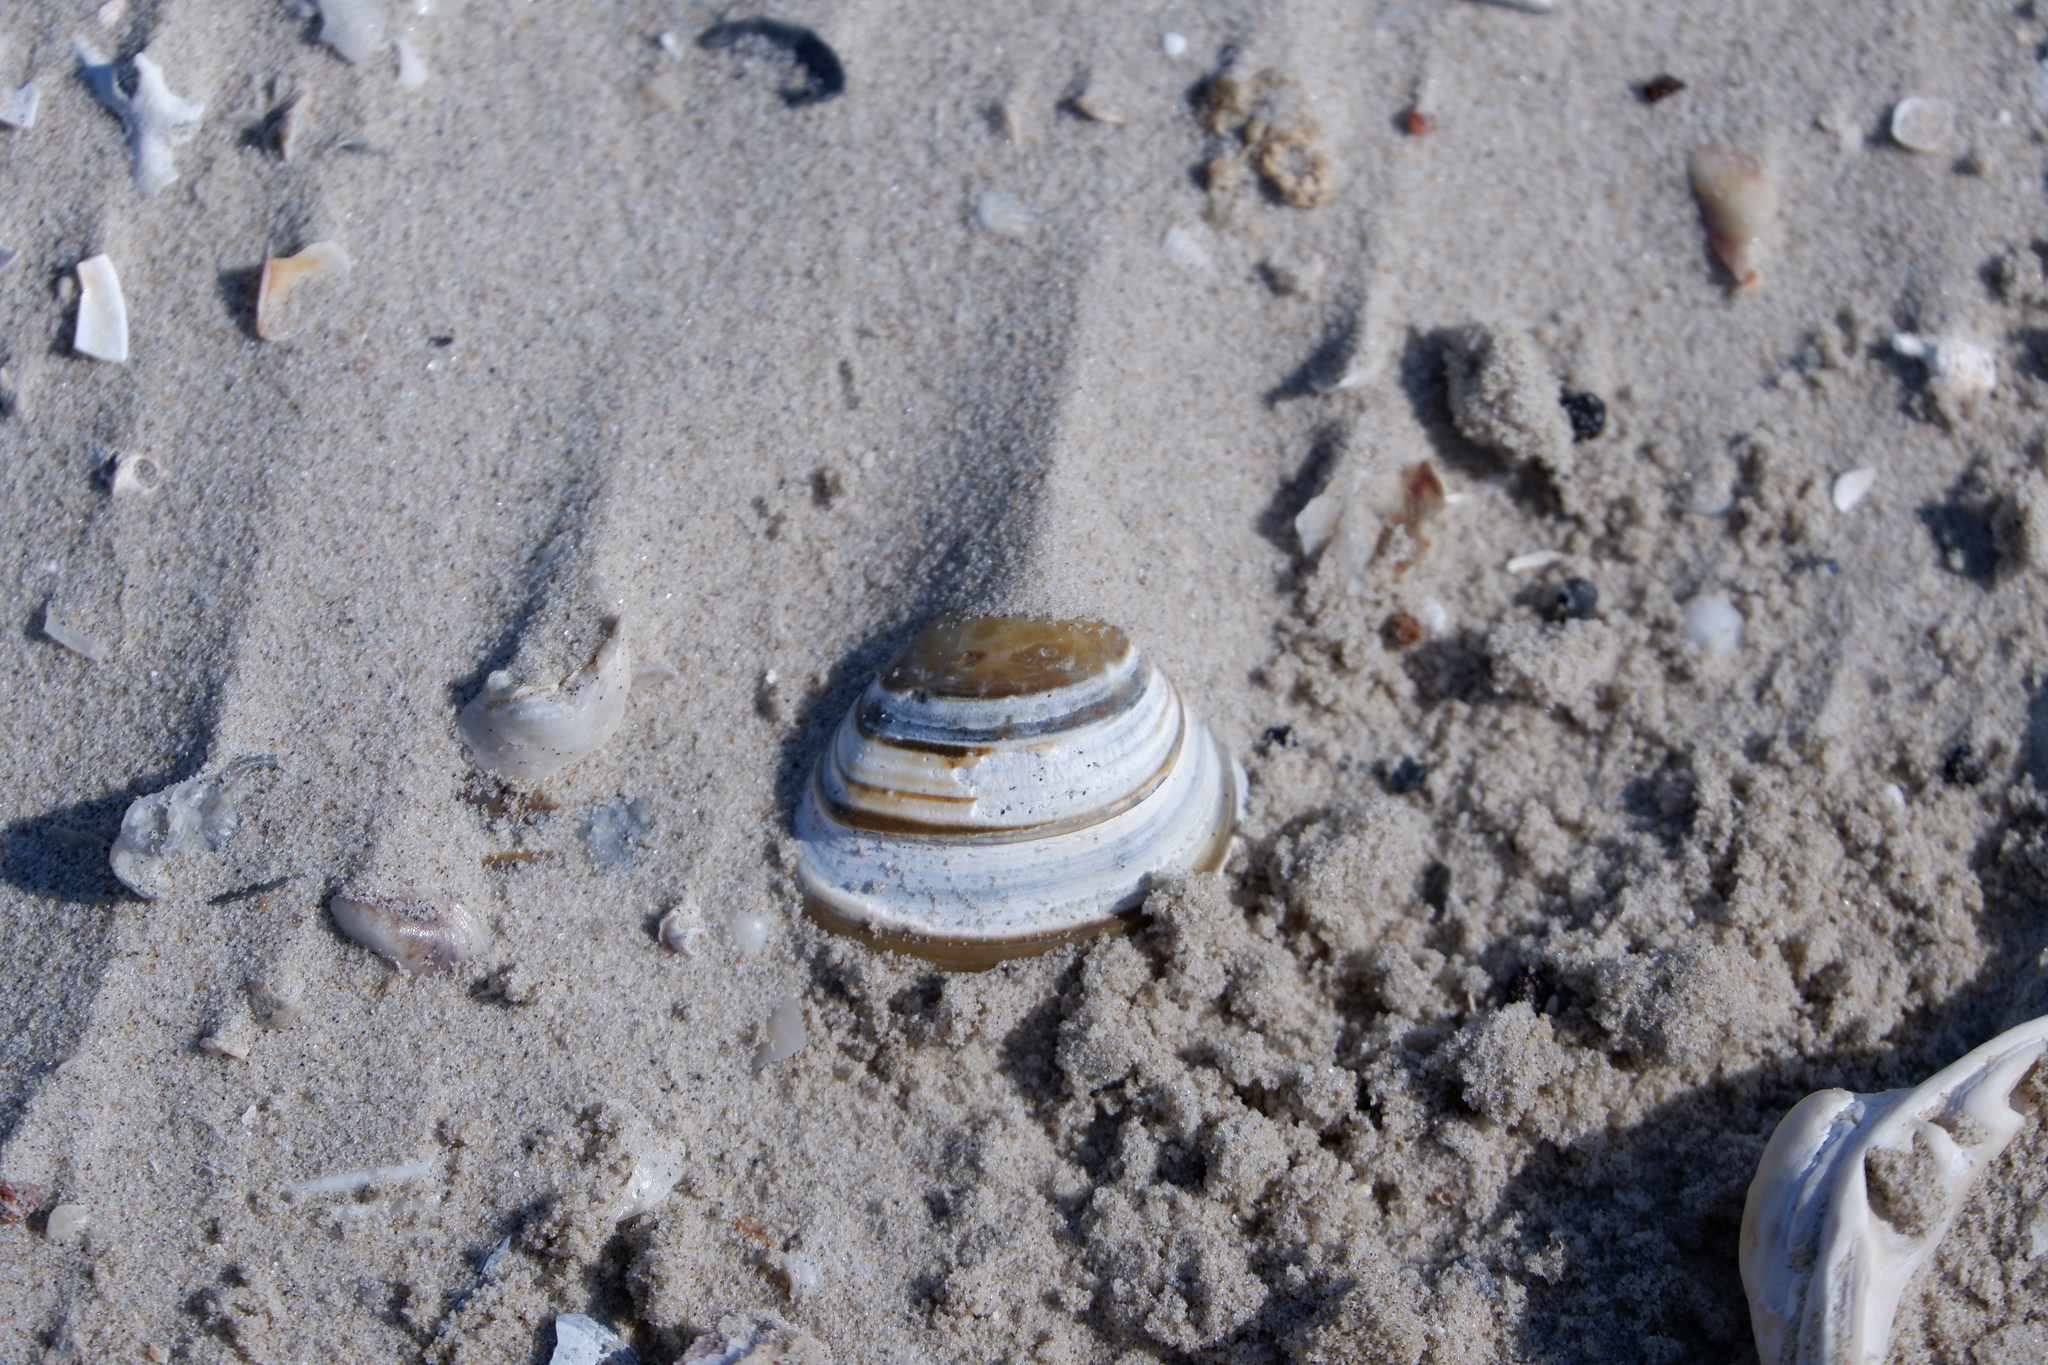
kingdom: Animalia
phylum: Mollusca
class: Bivalvia
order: Venerida
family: Mactridae
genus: Rangia
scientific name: Rangia cuneata
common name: Atlantic rangia
